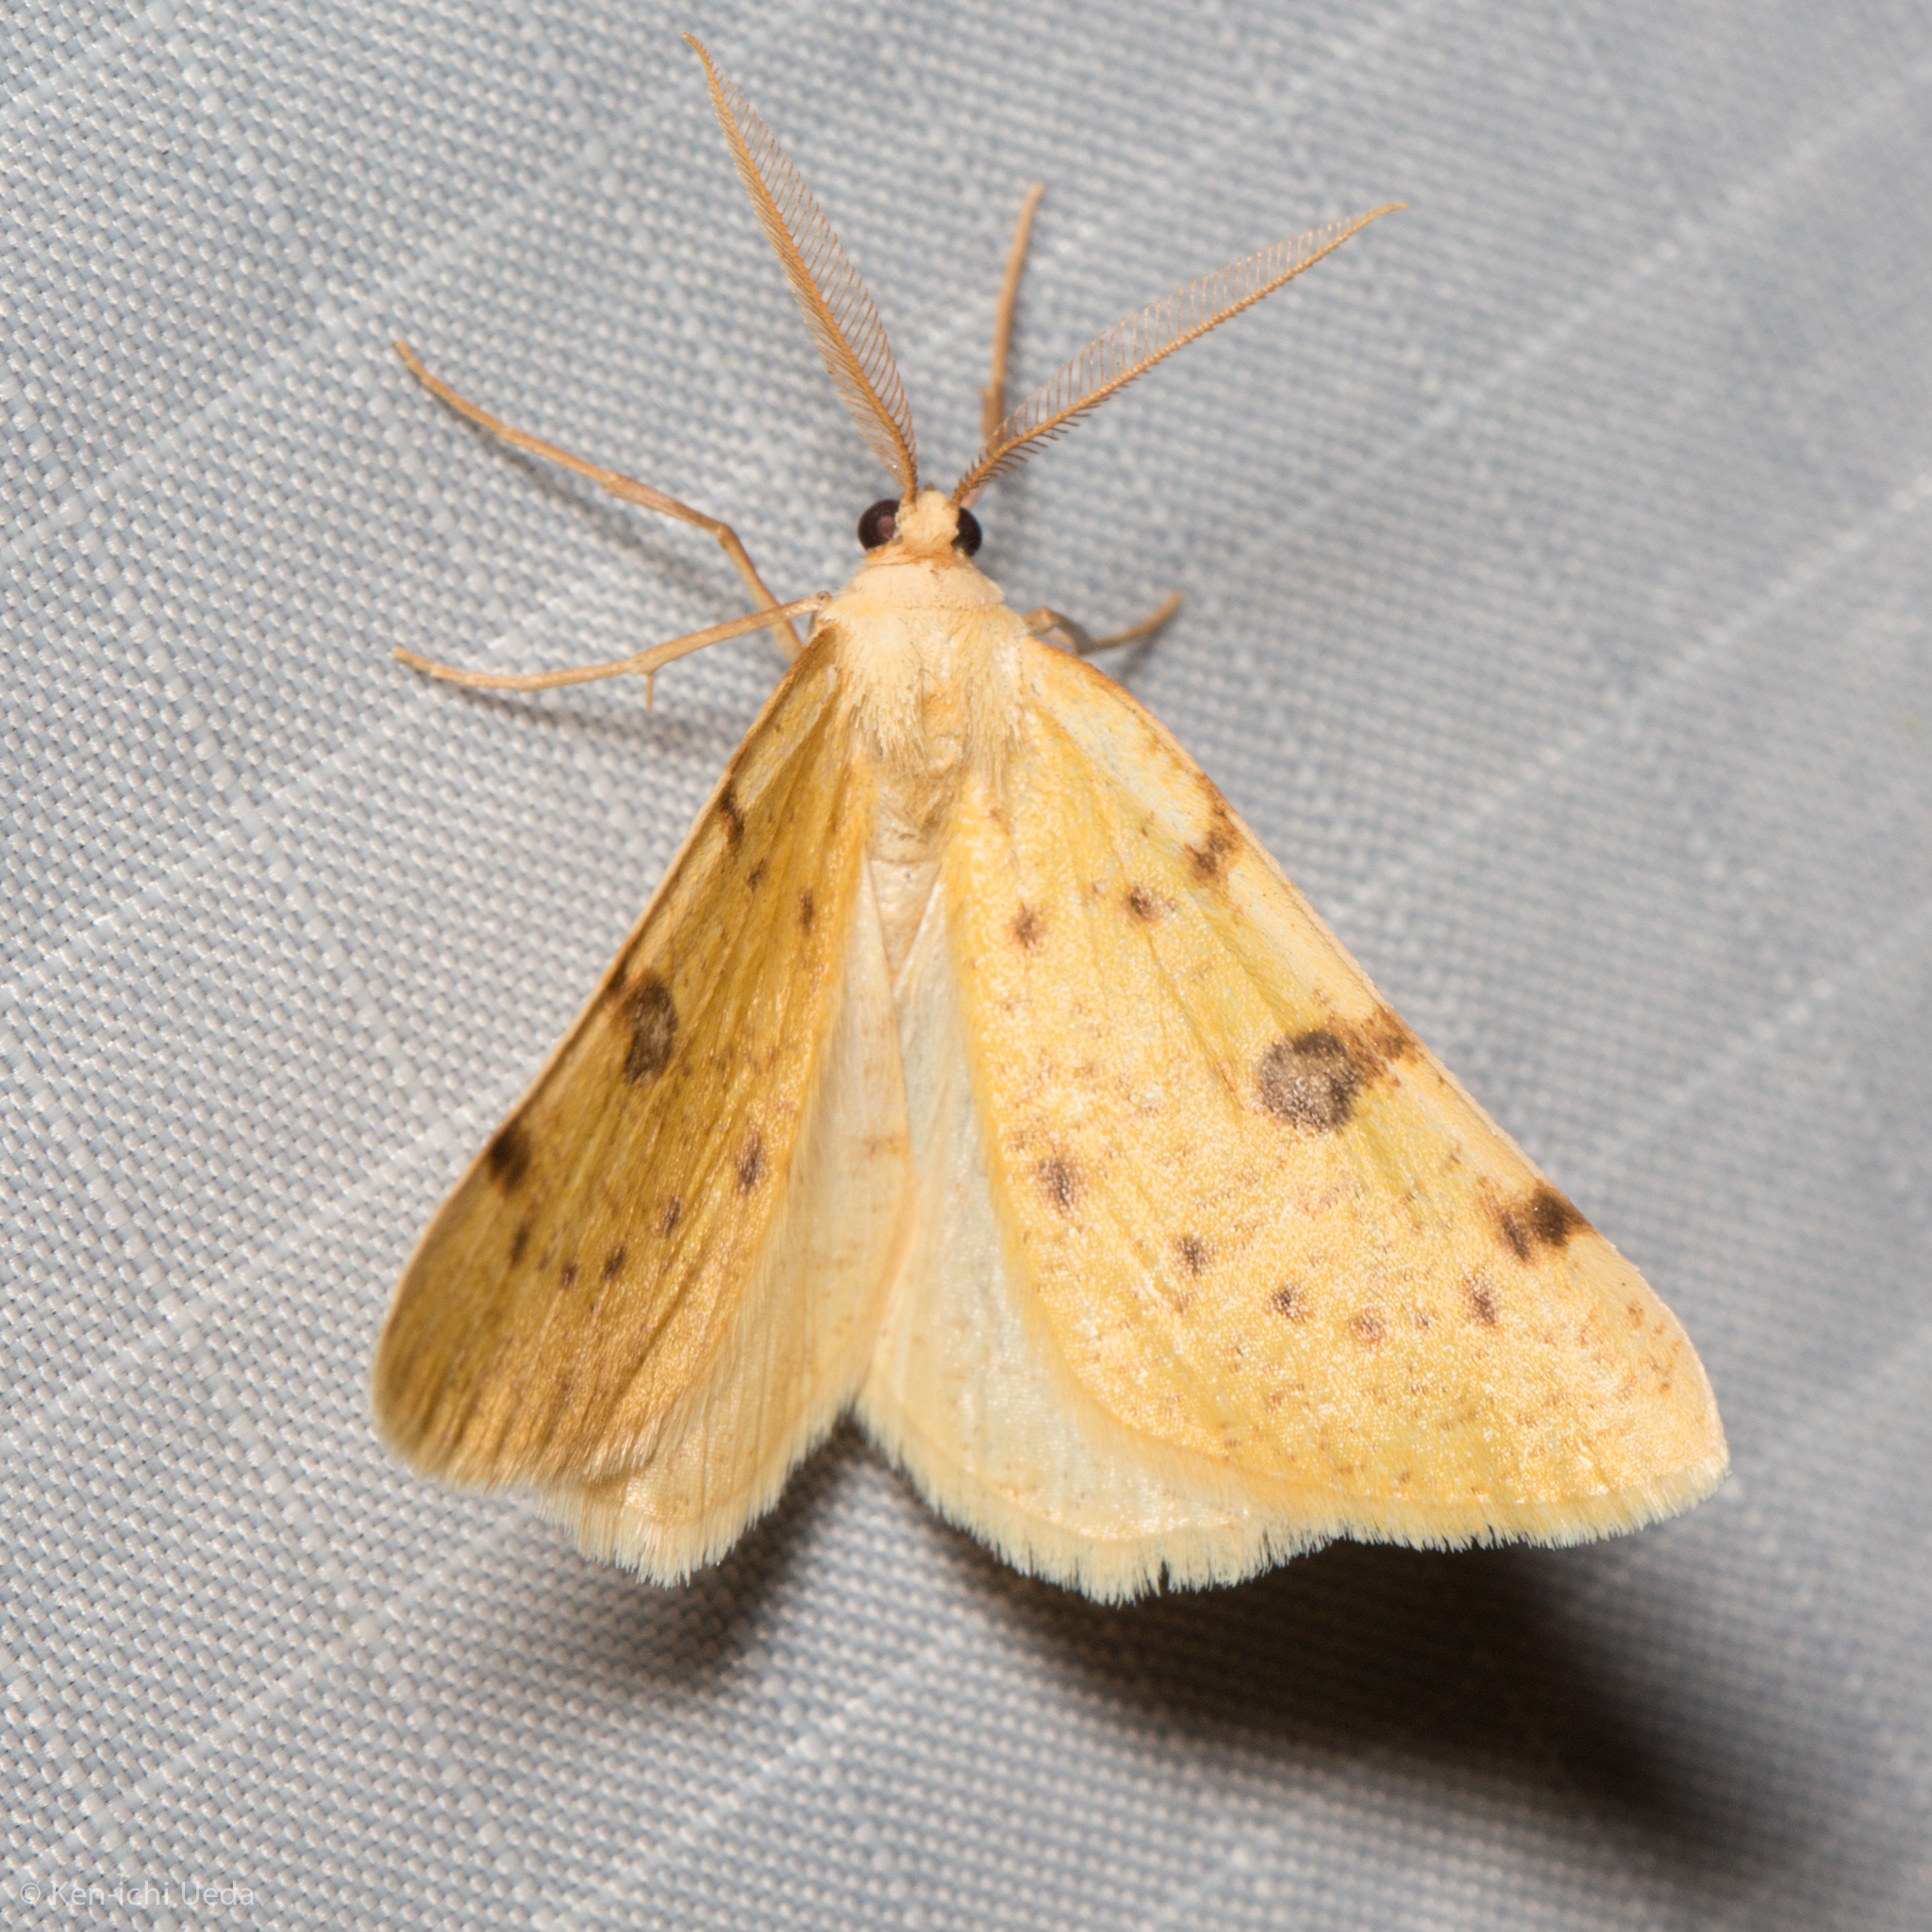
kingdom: Animalia
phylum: Arthropoda
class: Insecta
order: Lepidoptera
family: Geometridae
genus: Hesperumia
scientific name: Hesperumia sulphuraria
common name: Sulphur moth
